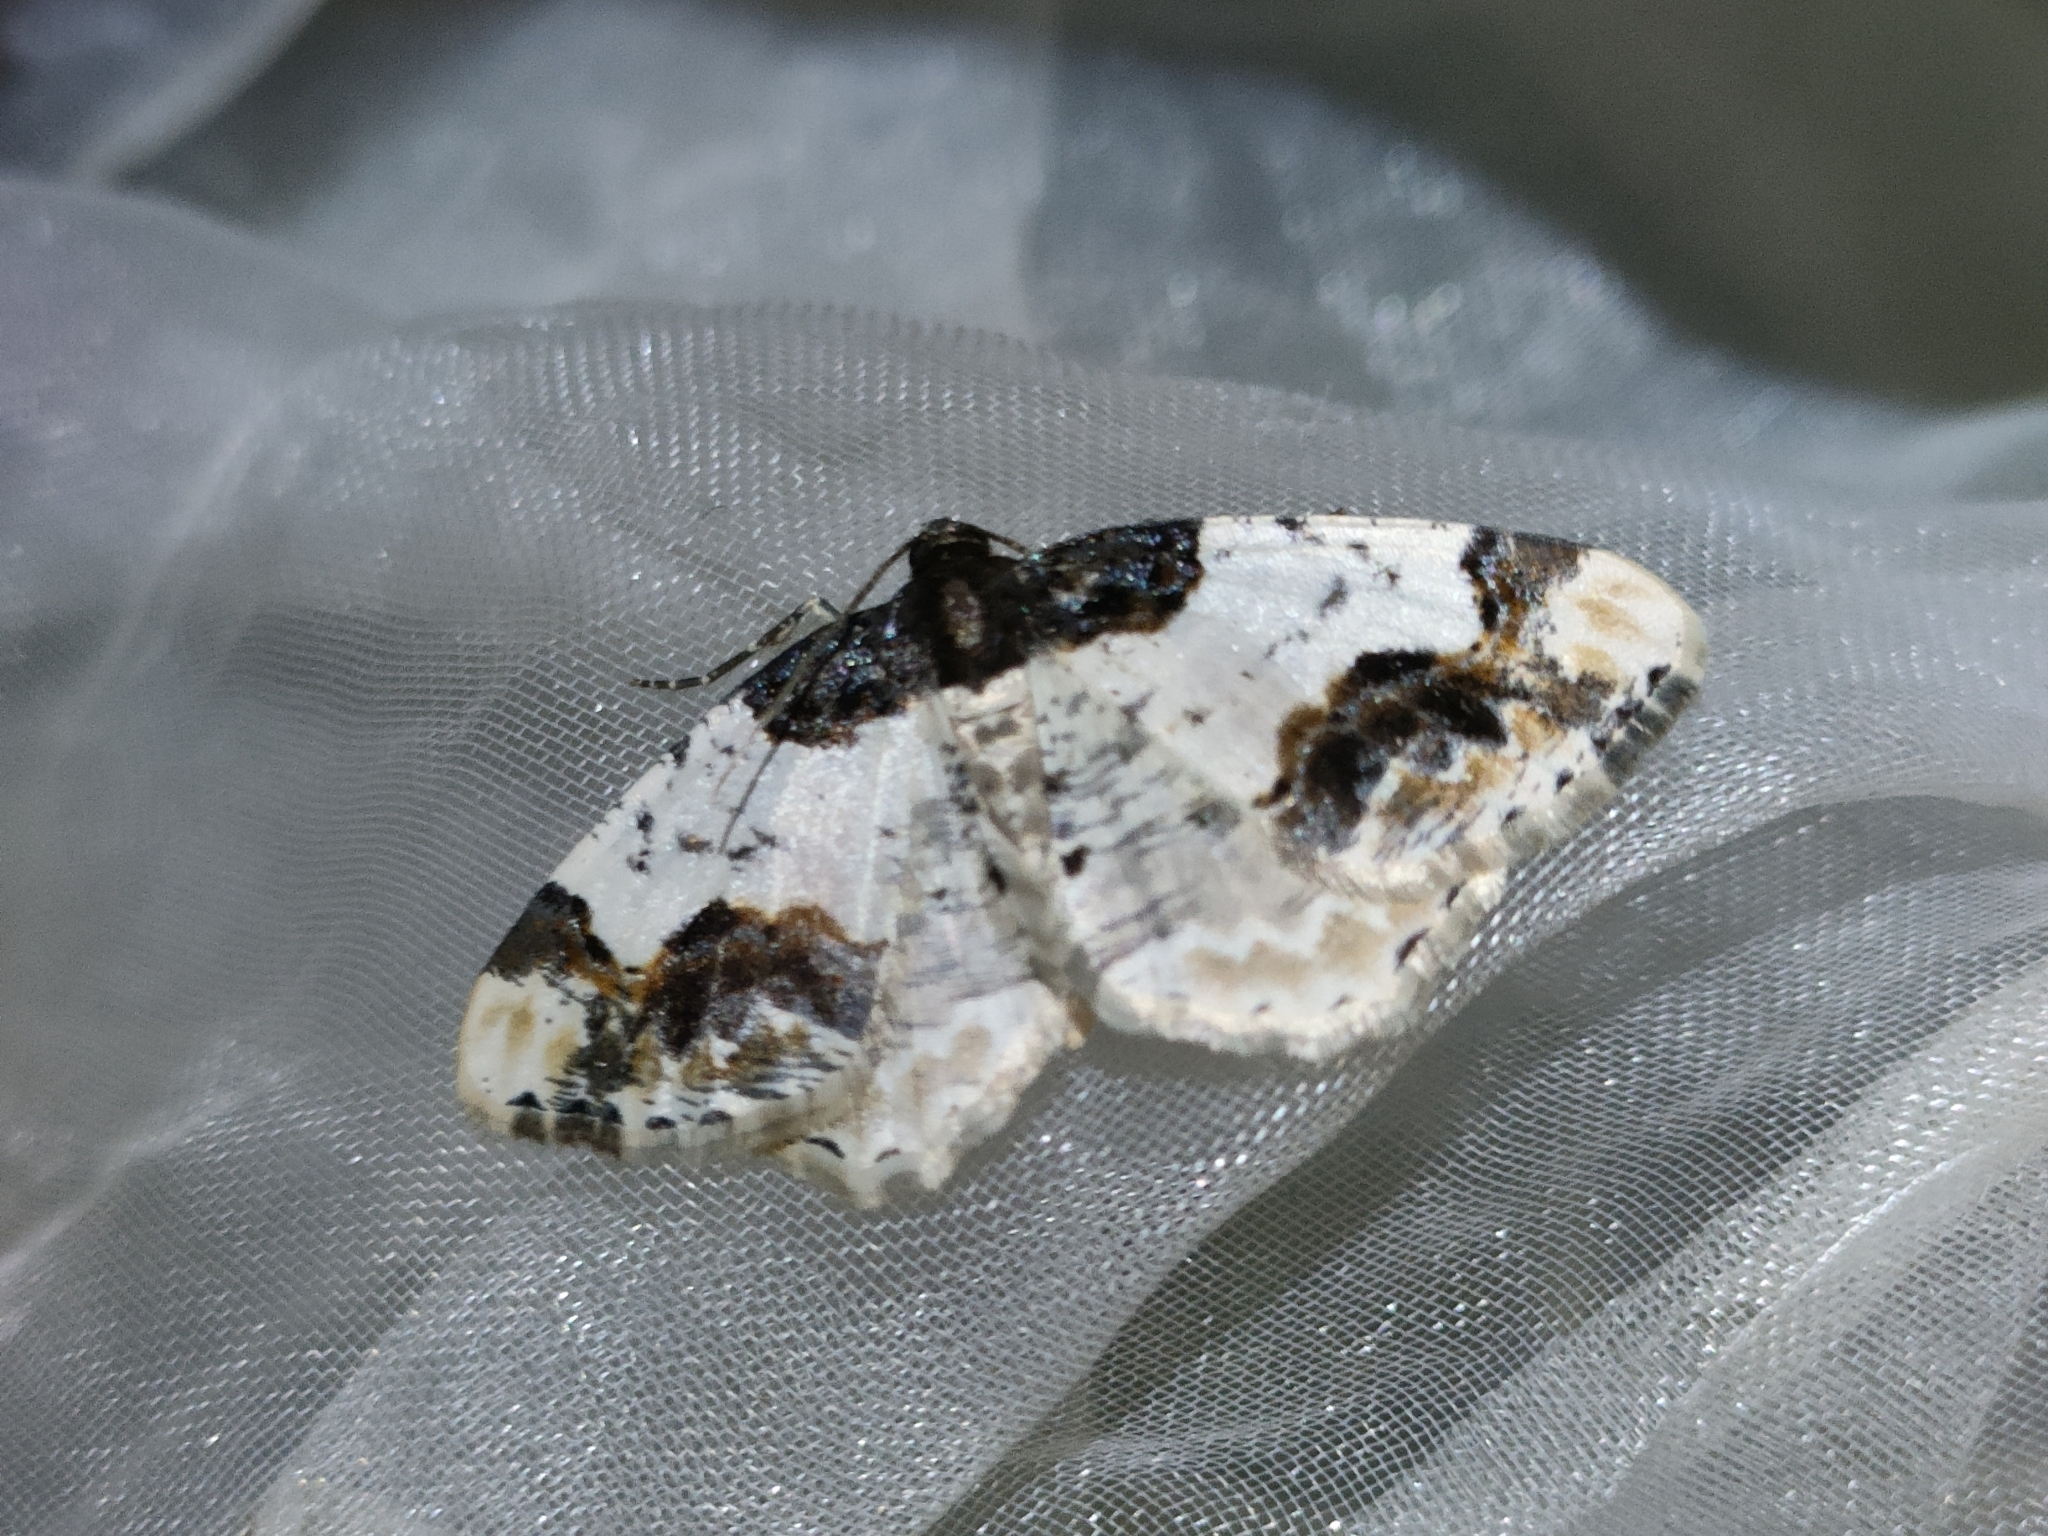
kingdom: Animalia
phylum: Arthropoda
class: Insecta
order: Lepidoptera
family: Geometridae
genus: Ligdia
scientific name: Ligdia adustata
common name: Scorched carpet
